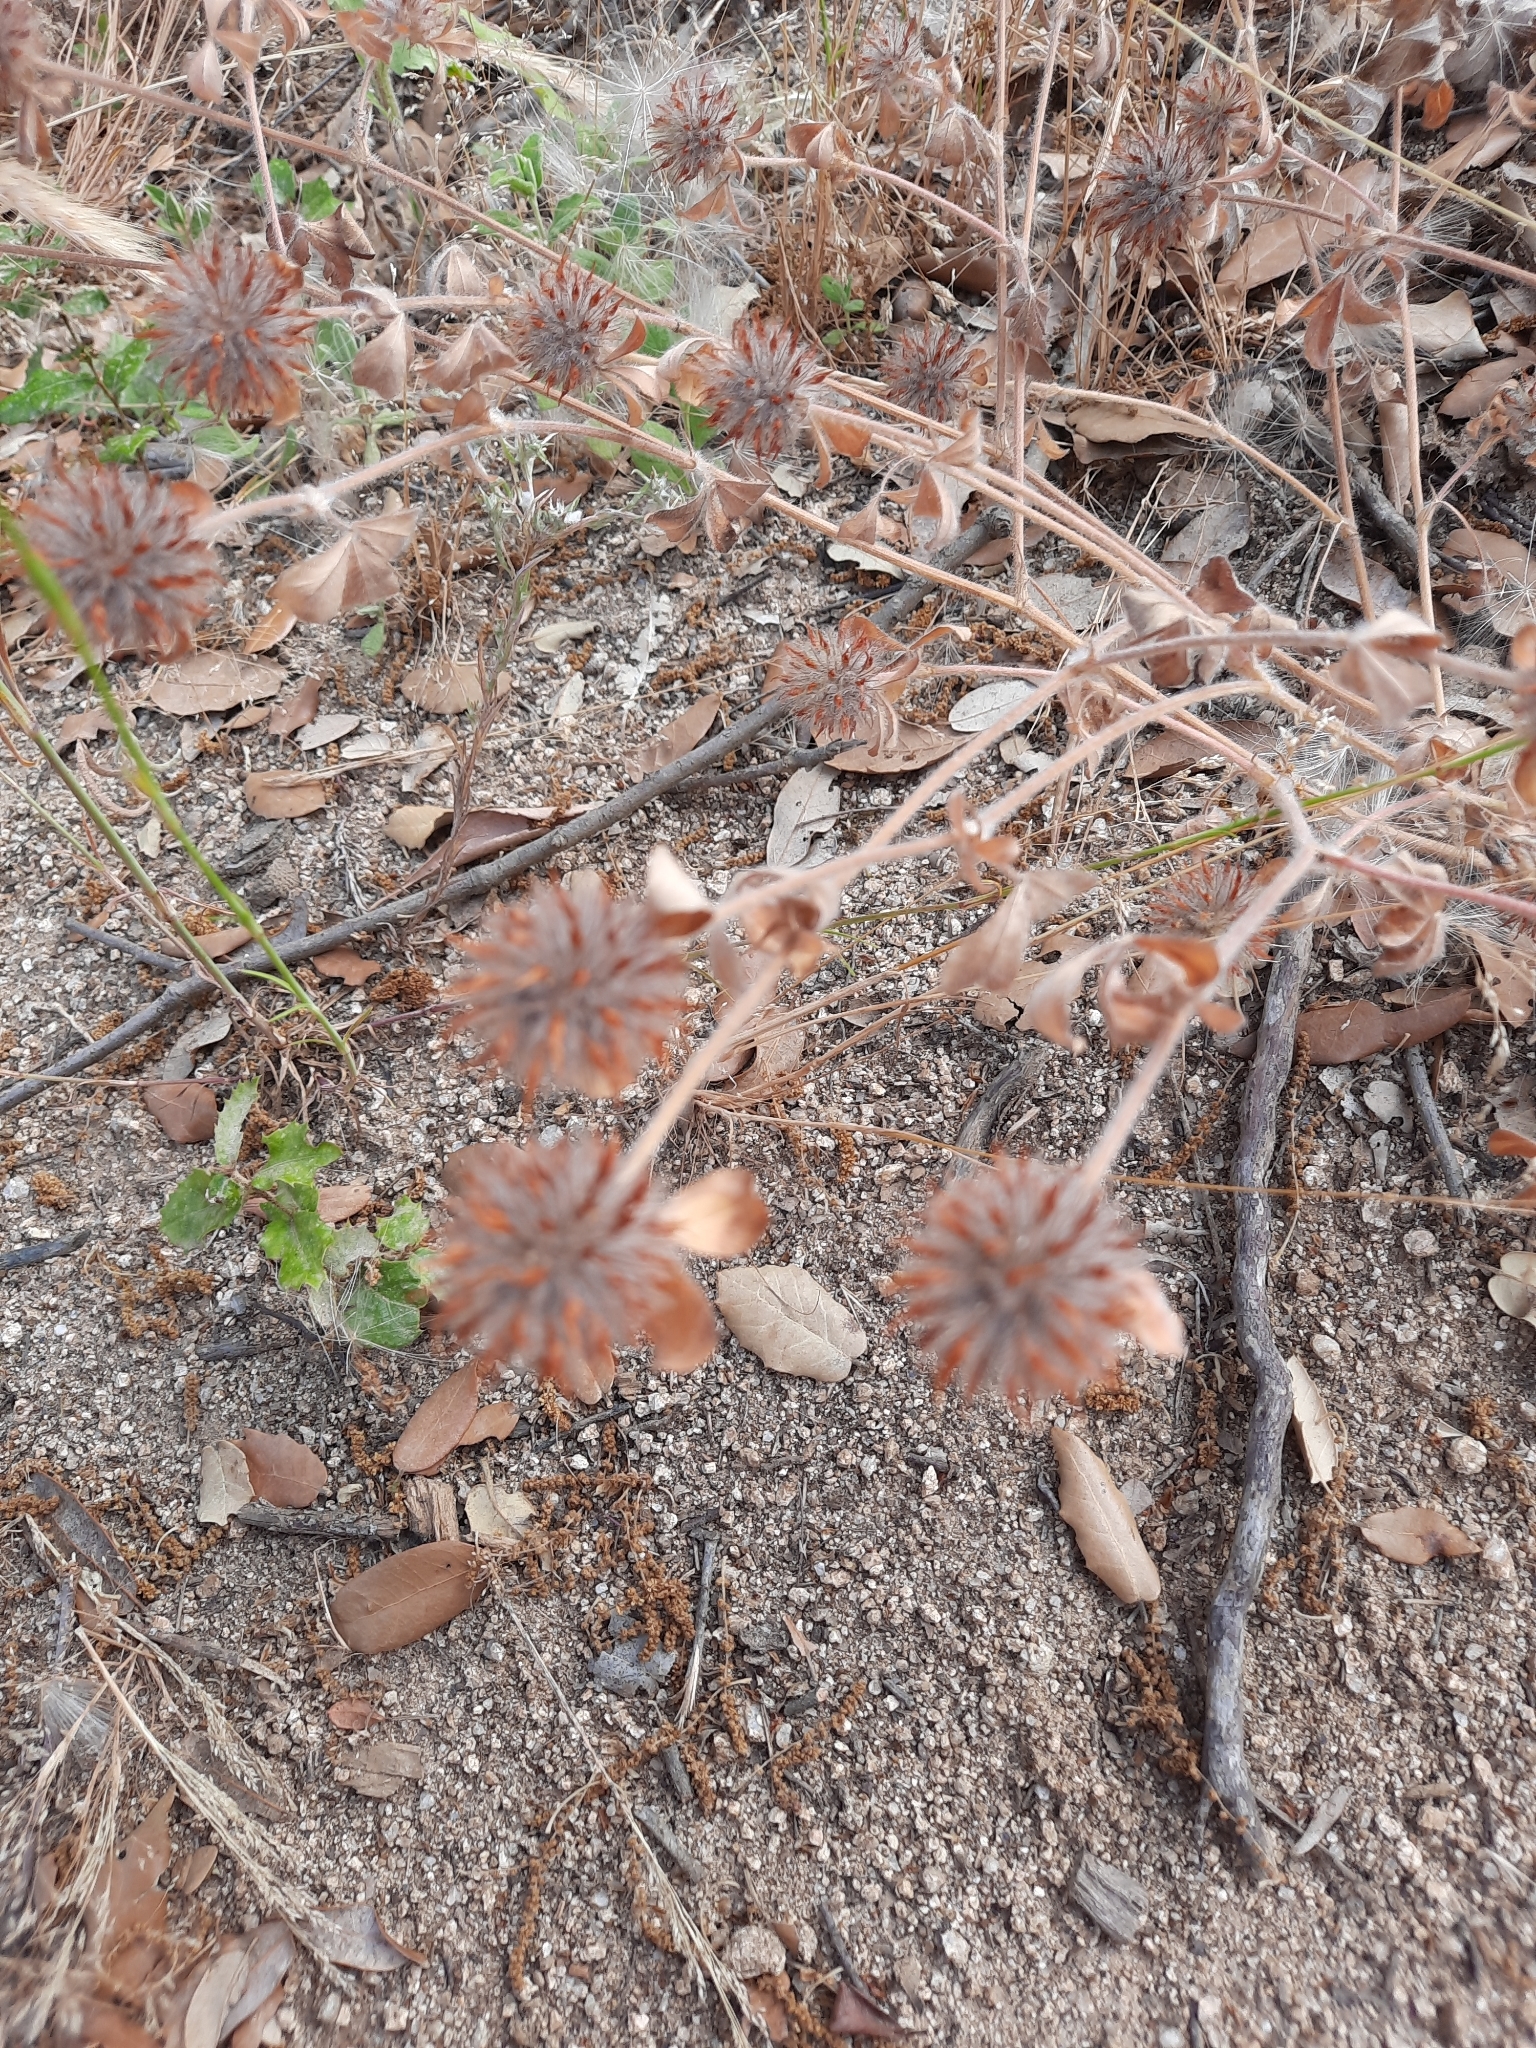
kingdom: Plantae
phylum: Tracheophyta
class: Magnoliopsida
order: Fabales
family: Fabaceae
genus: Trifolium
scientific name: Trifolium hirtum
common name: Rose clover
